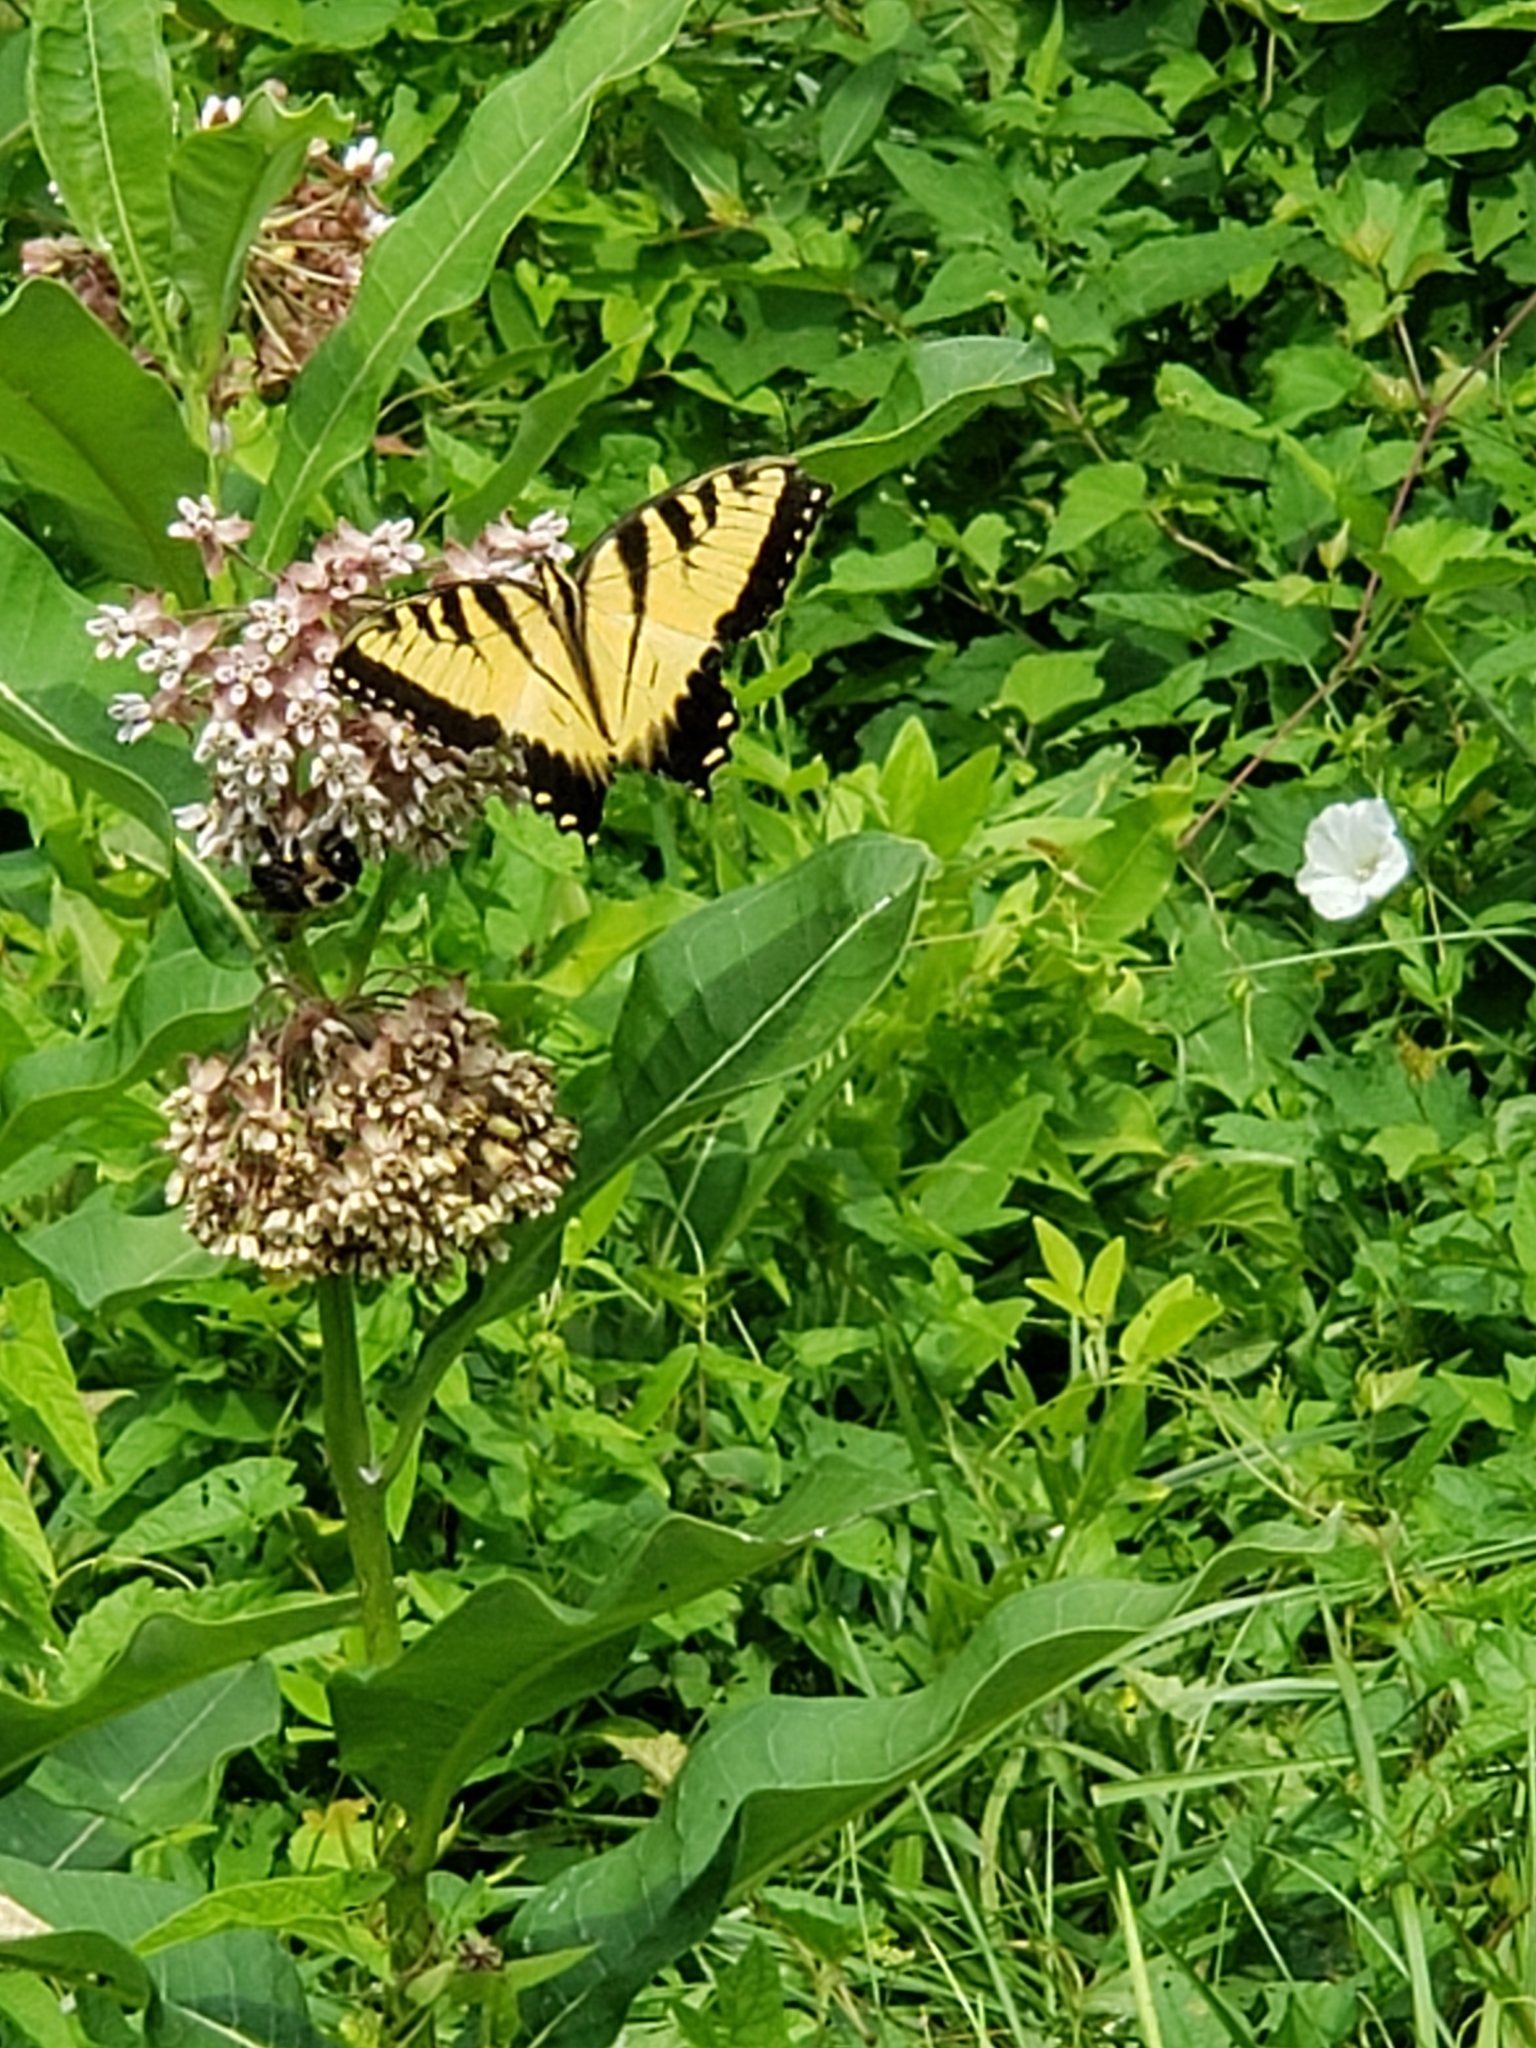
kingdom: Animalia
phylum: Arthropoda
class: Insecta
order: Lepidoptera
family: Papilionidae
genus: Papilio
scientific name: Papilio glaucus
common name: Tiger swallowtail
